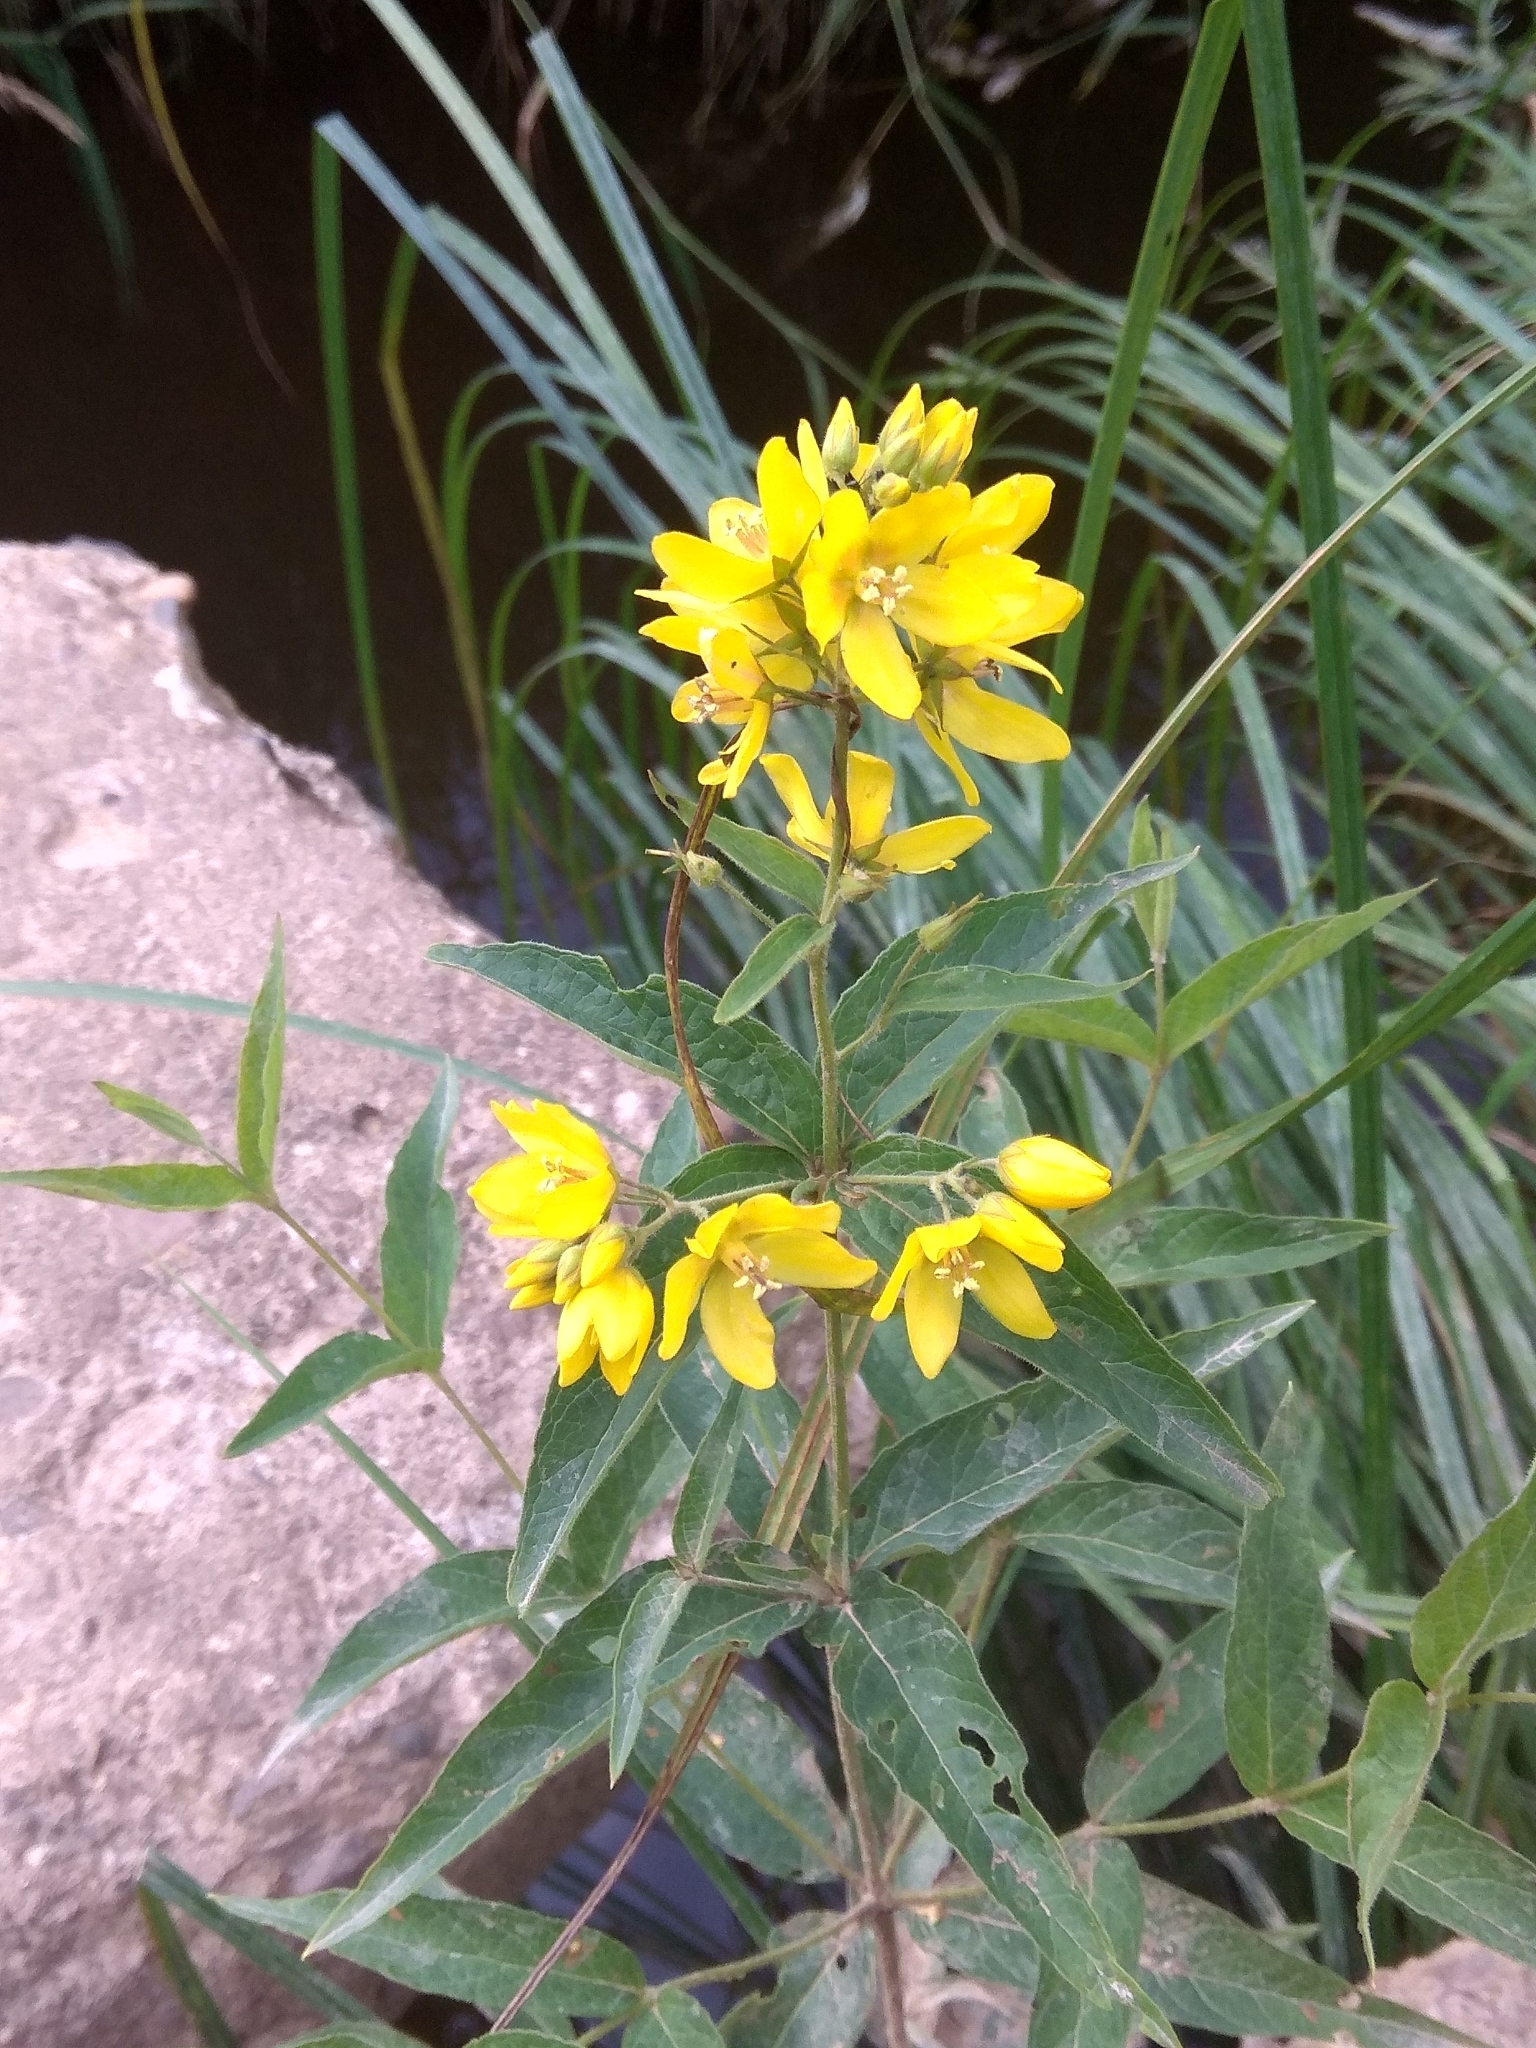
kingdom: Plantae
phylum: Tracheophyta
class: Magnoliopsida
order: Ericales
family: Primulaceae
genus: Lysimachia
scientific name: Lysimachia vulgaris
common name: Yellow loosestrife
